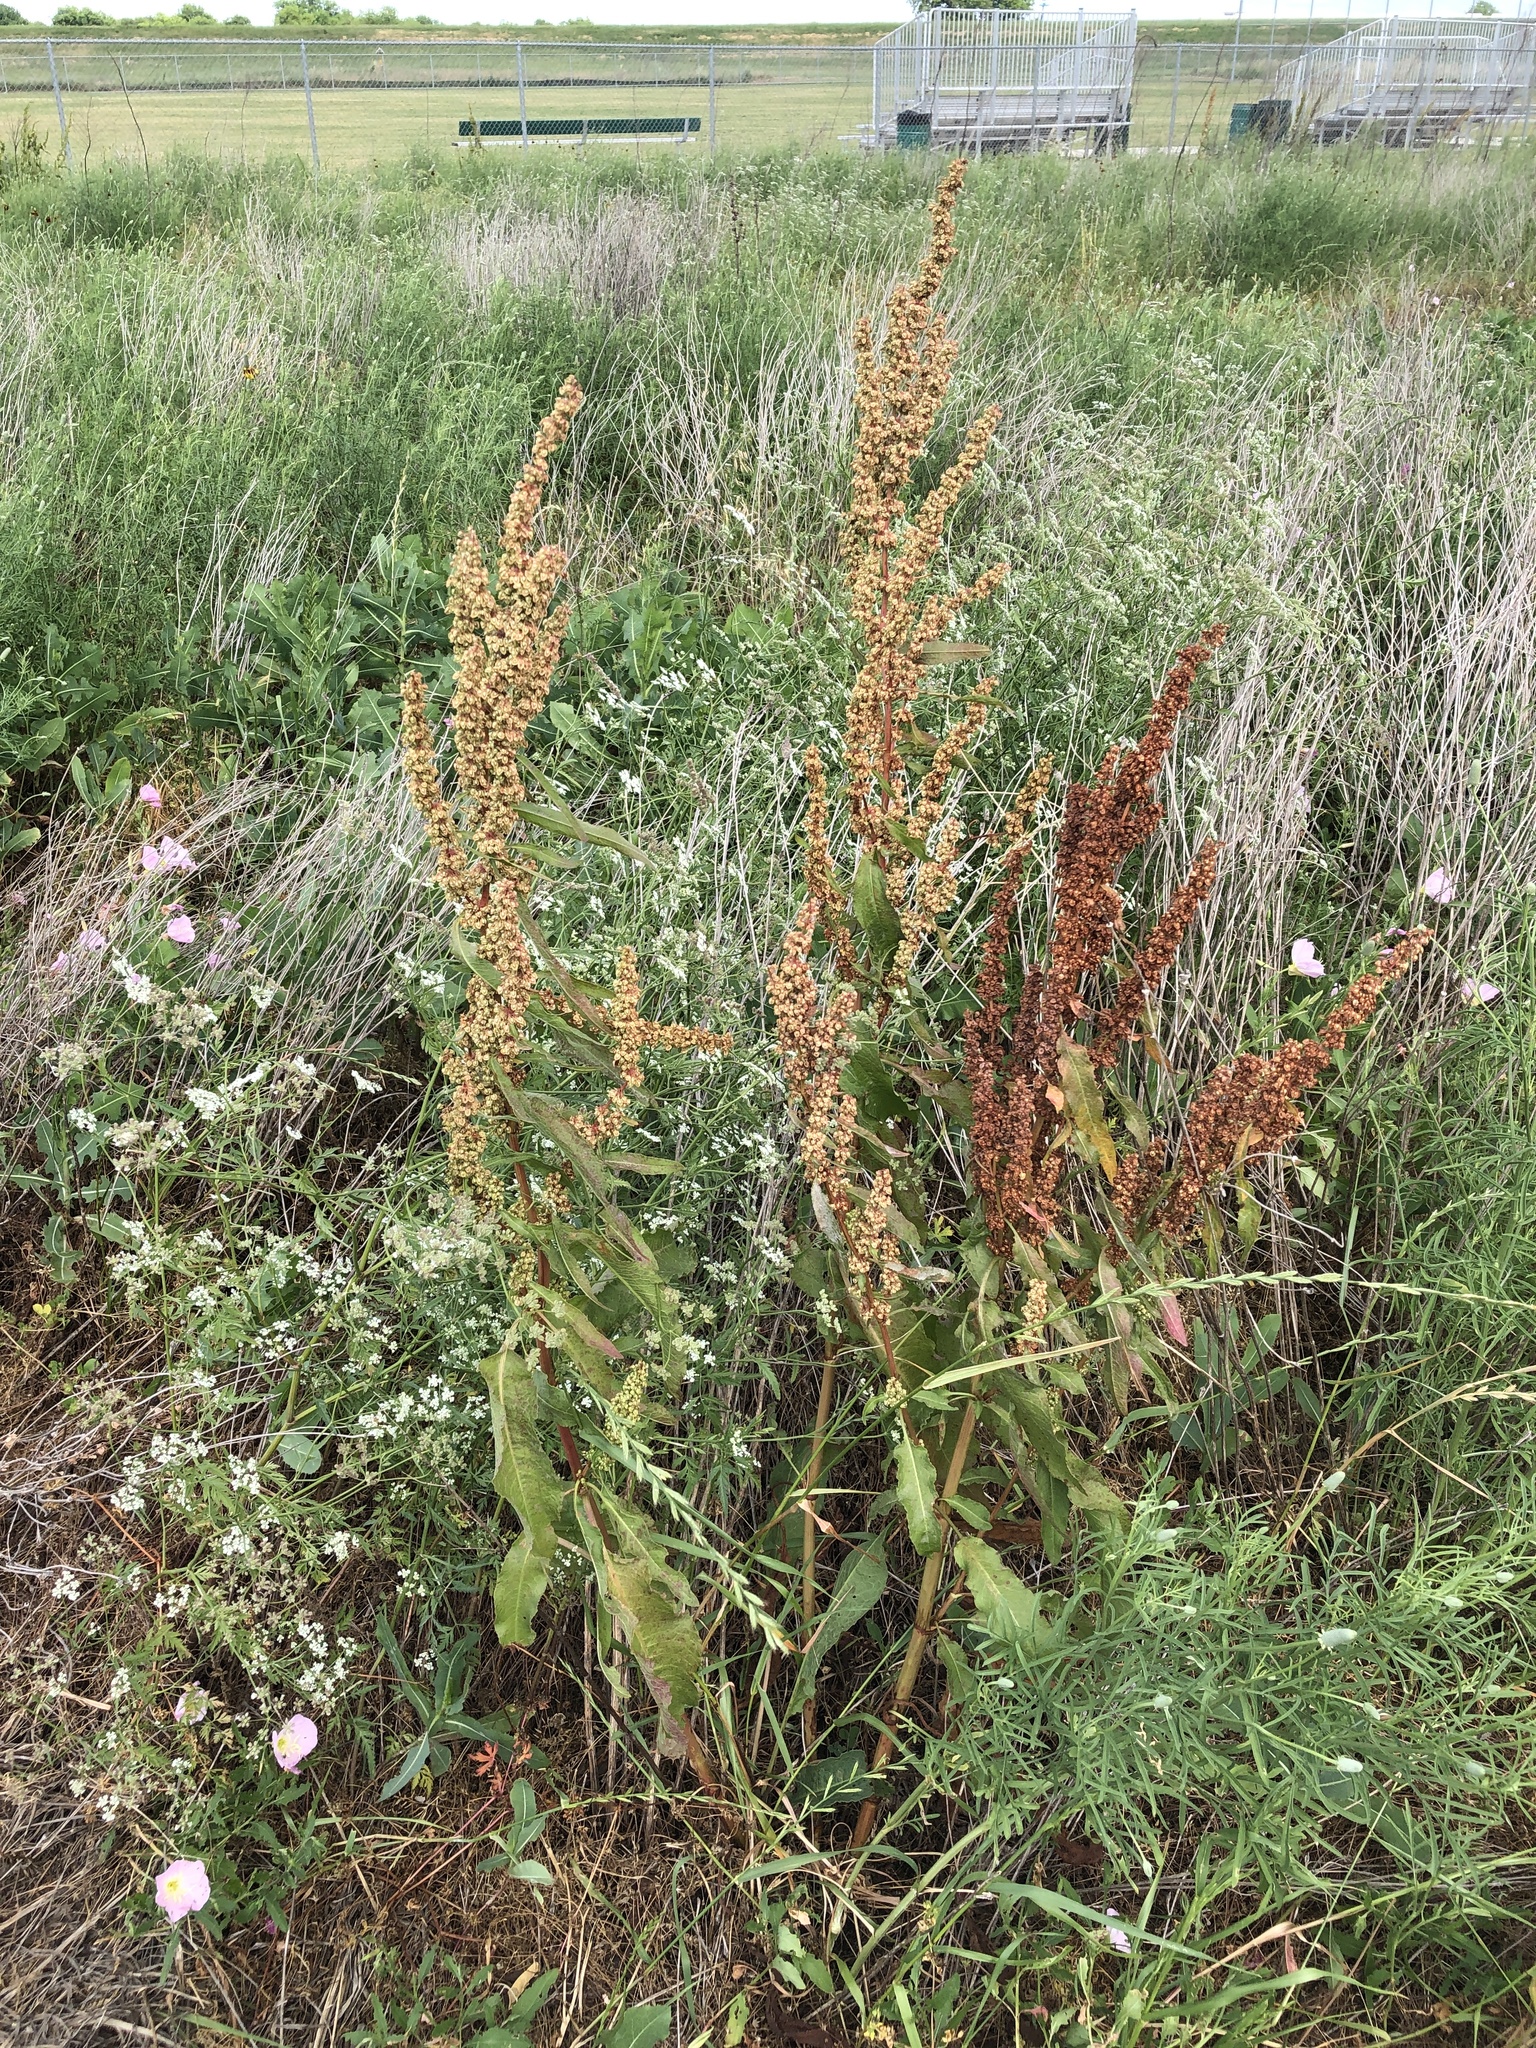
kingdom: Plantae
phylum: Tracheophyta
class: Magnoliopsida
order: Caryophyllales
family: Polygonaceae
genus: Rumex
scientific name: Rumex crispus
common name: Curled dock
